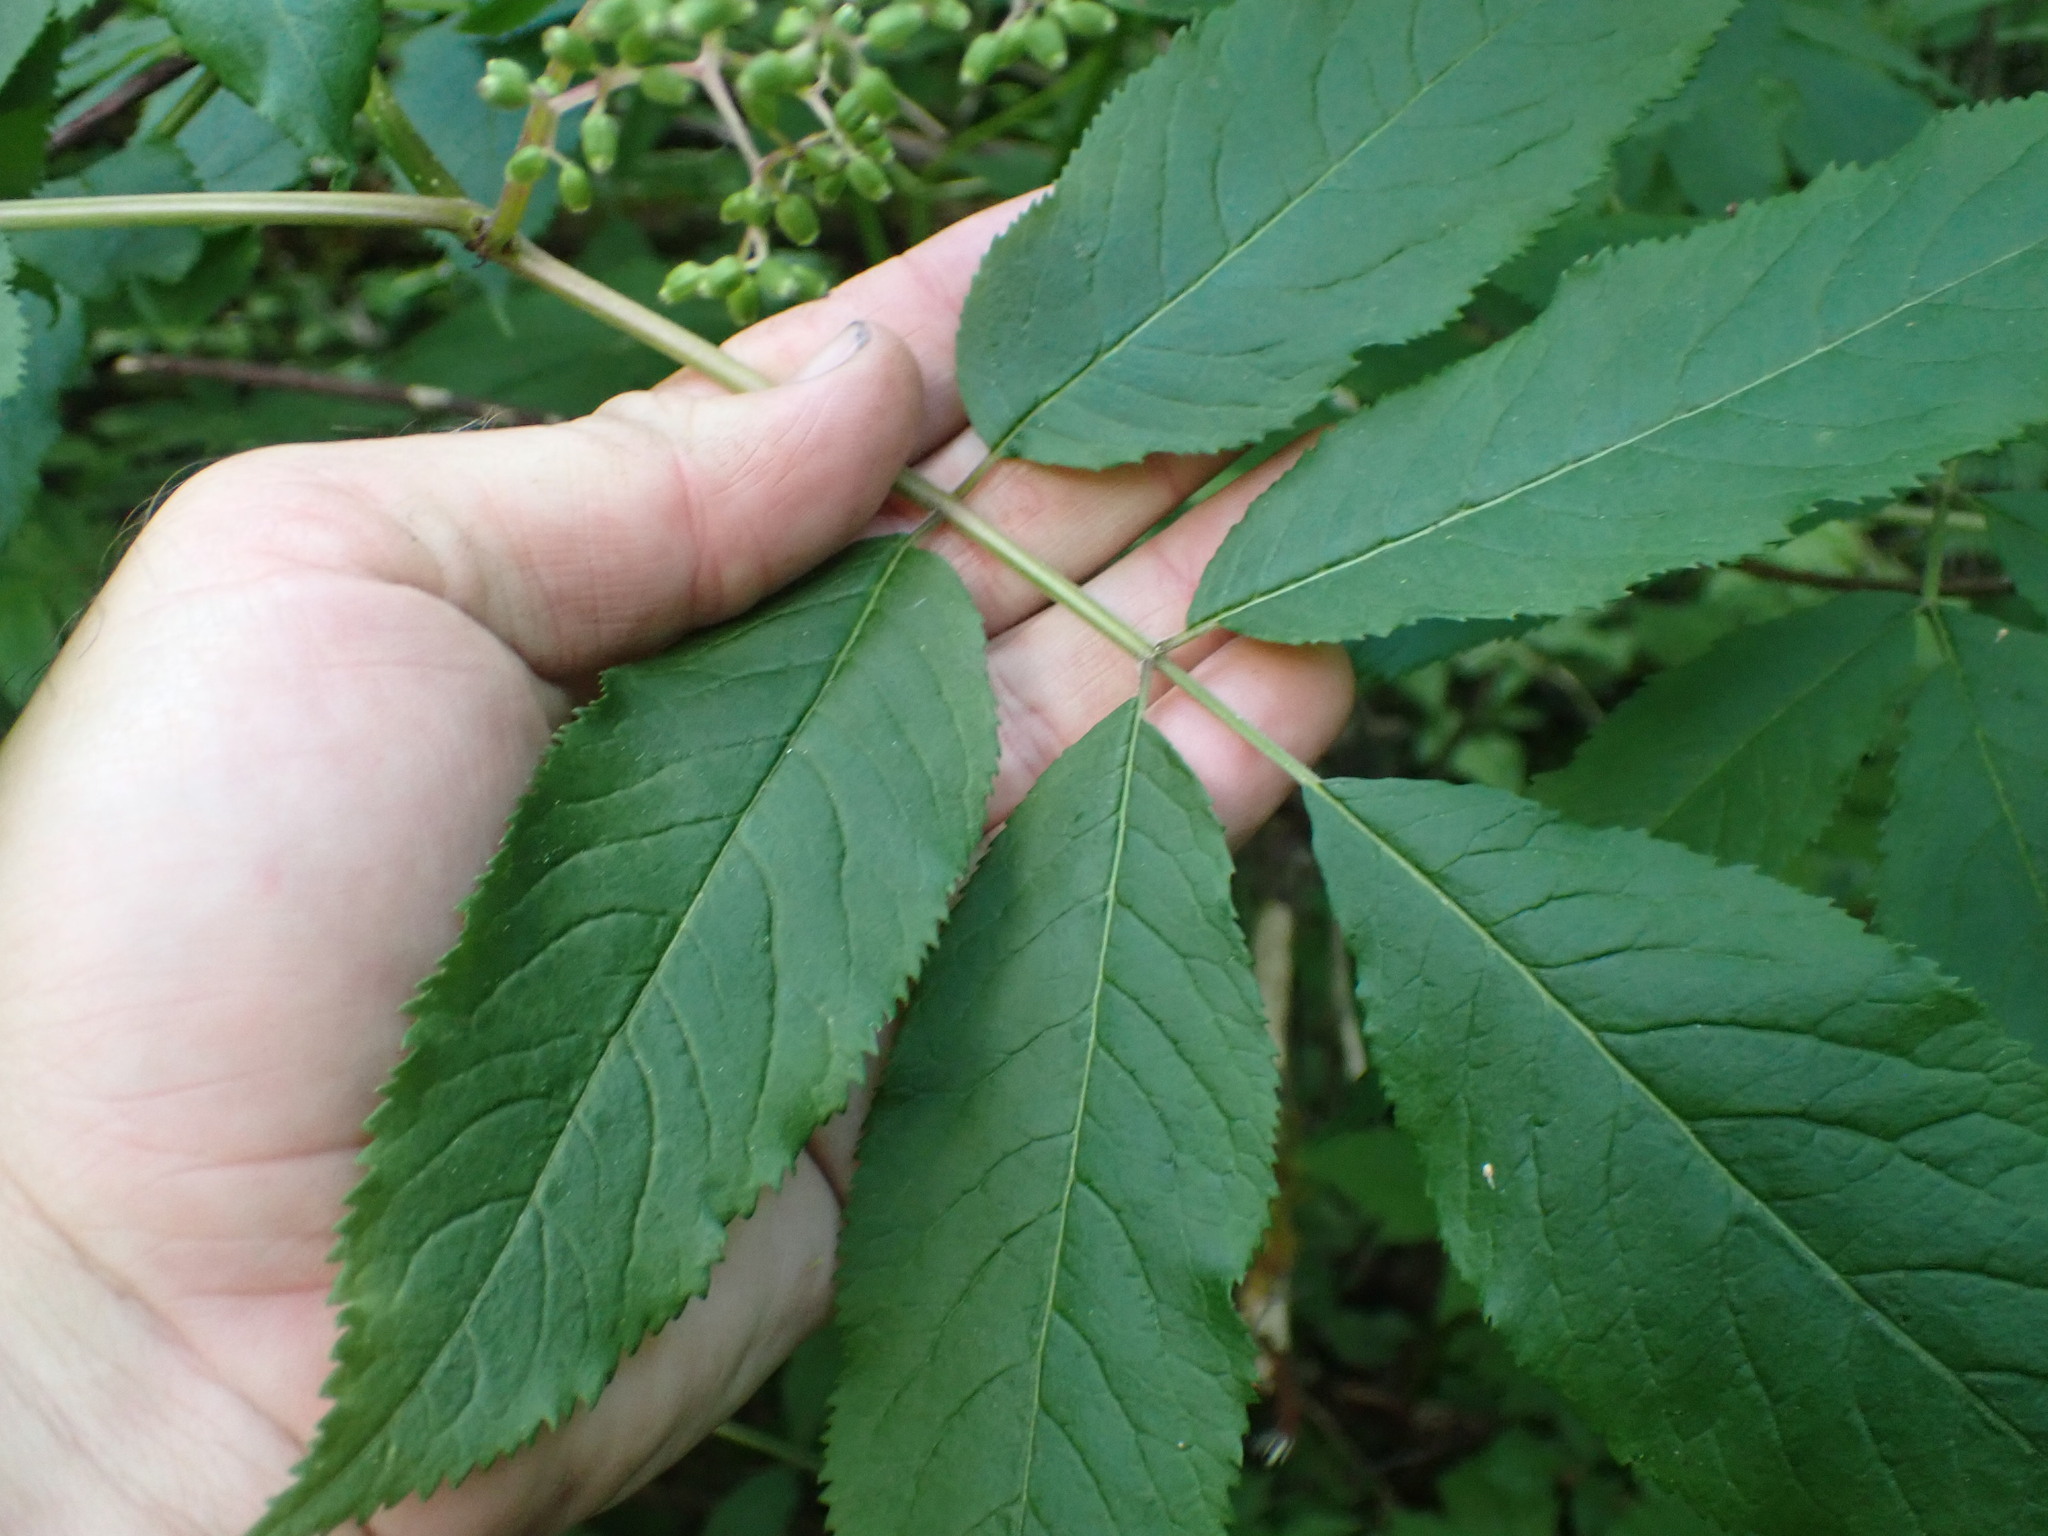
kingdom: Plantae
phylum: Tracheophyta
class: Magnoliopsida
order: Dipsacales
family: Viburnaceae
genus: Sambucus
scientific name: Sambucus racemosa
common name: Red-berried elder
